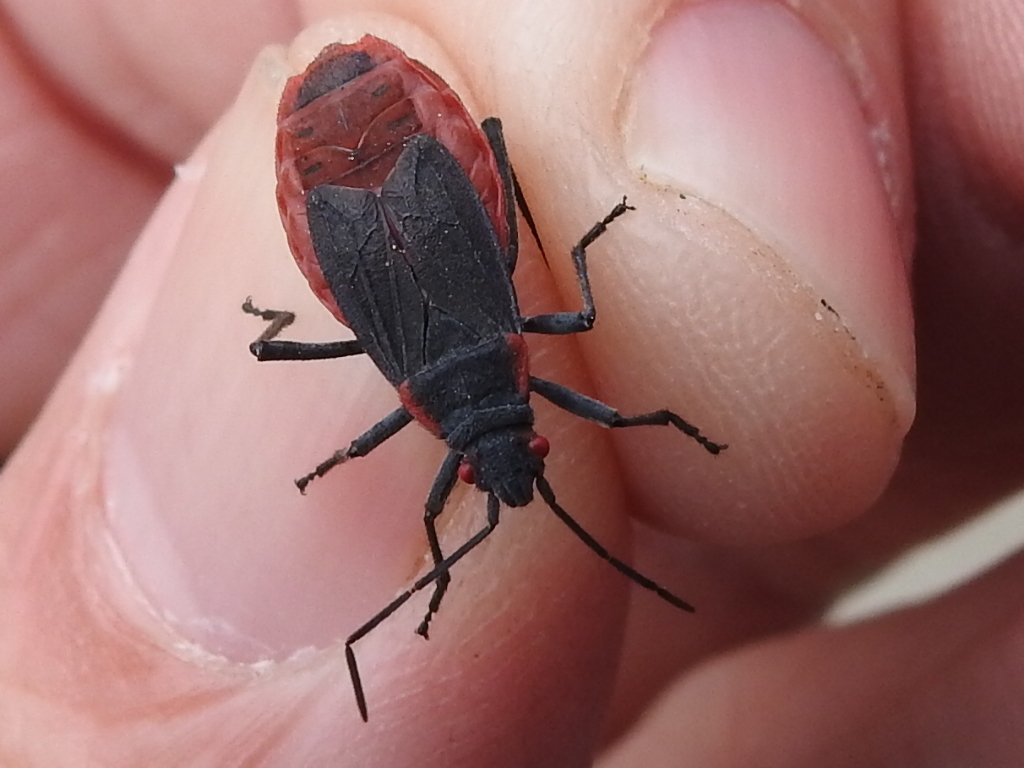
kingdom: Animalia
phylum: Arthropoda
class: Insecta
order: Hemiptera
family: Rhopalidae
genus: Jadera
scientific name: Jadera haematoloma
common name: Red-shouldered bug
